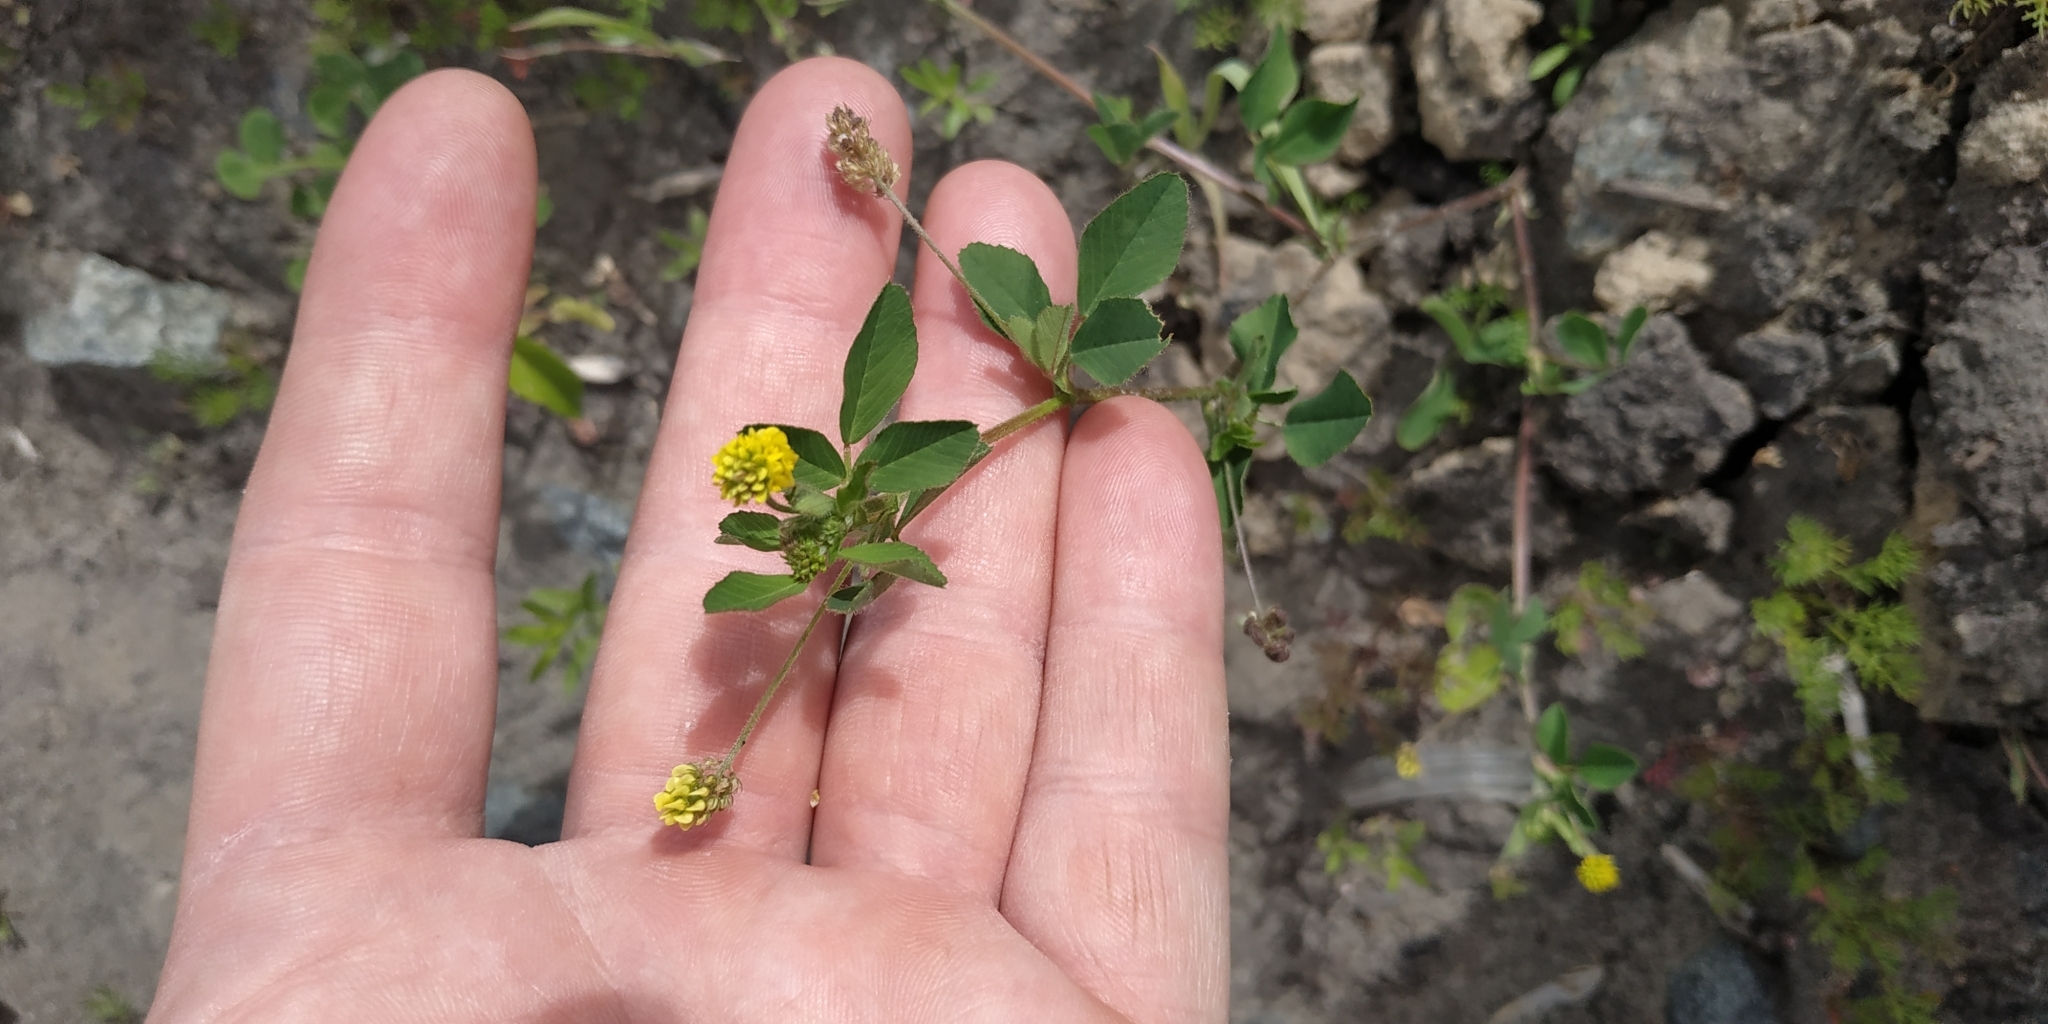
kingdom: Plantae
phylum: Tracheophyta
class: Magnoliopsida
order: Fabales
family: Fabaceae
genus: Medicago
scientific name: Medicago lupulina
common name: Black medick
